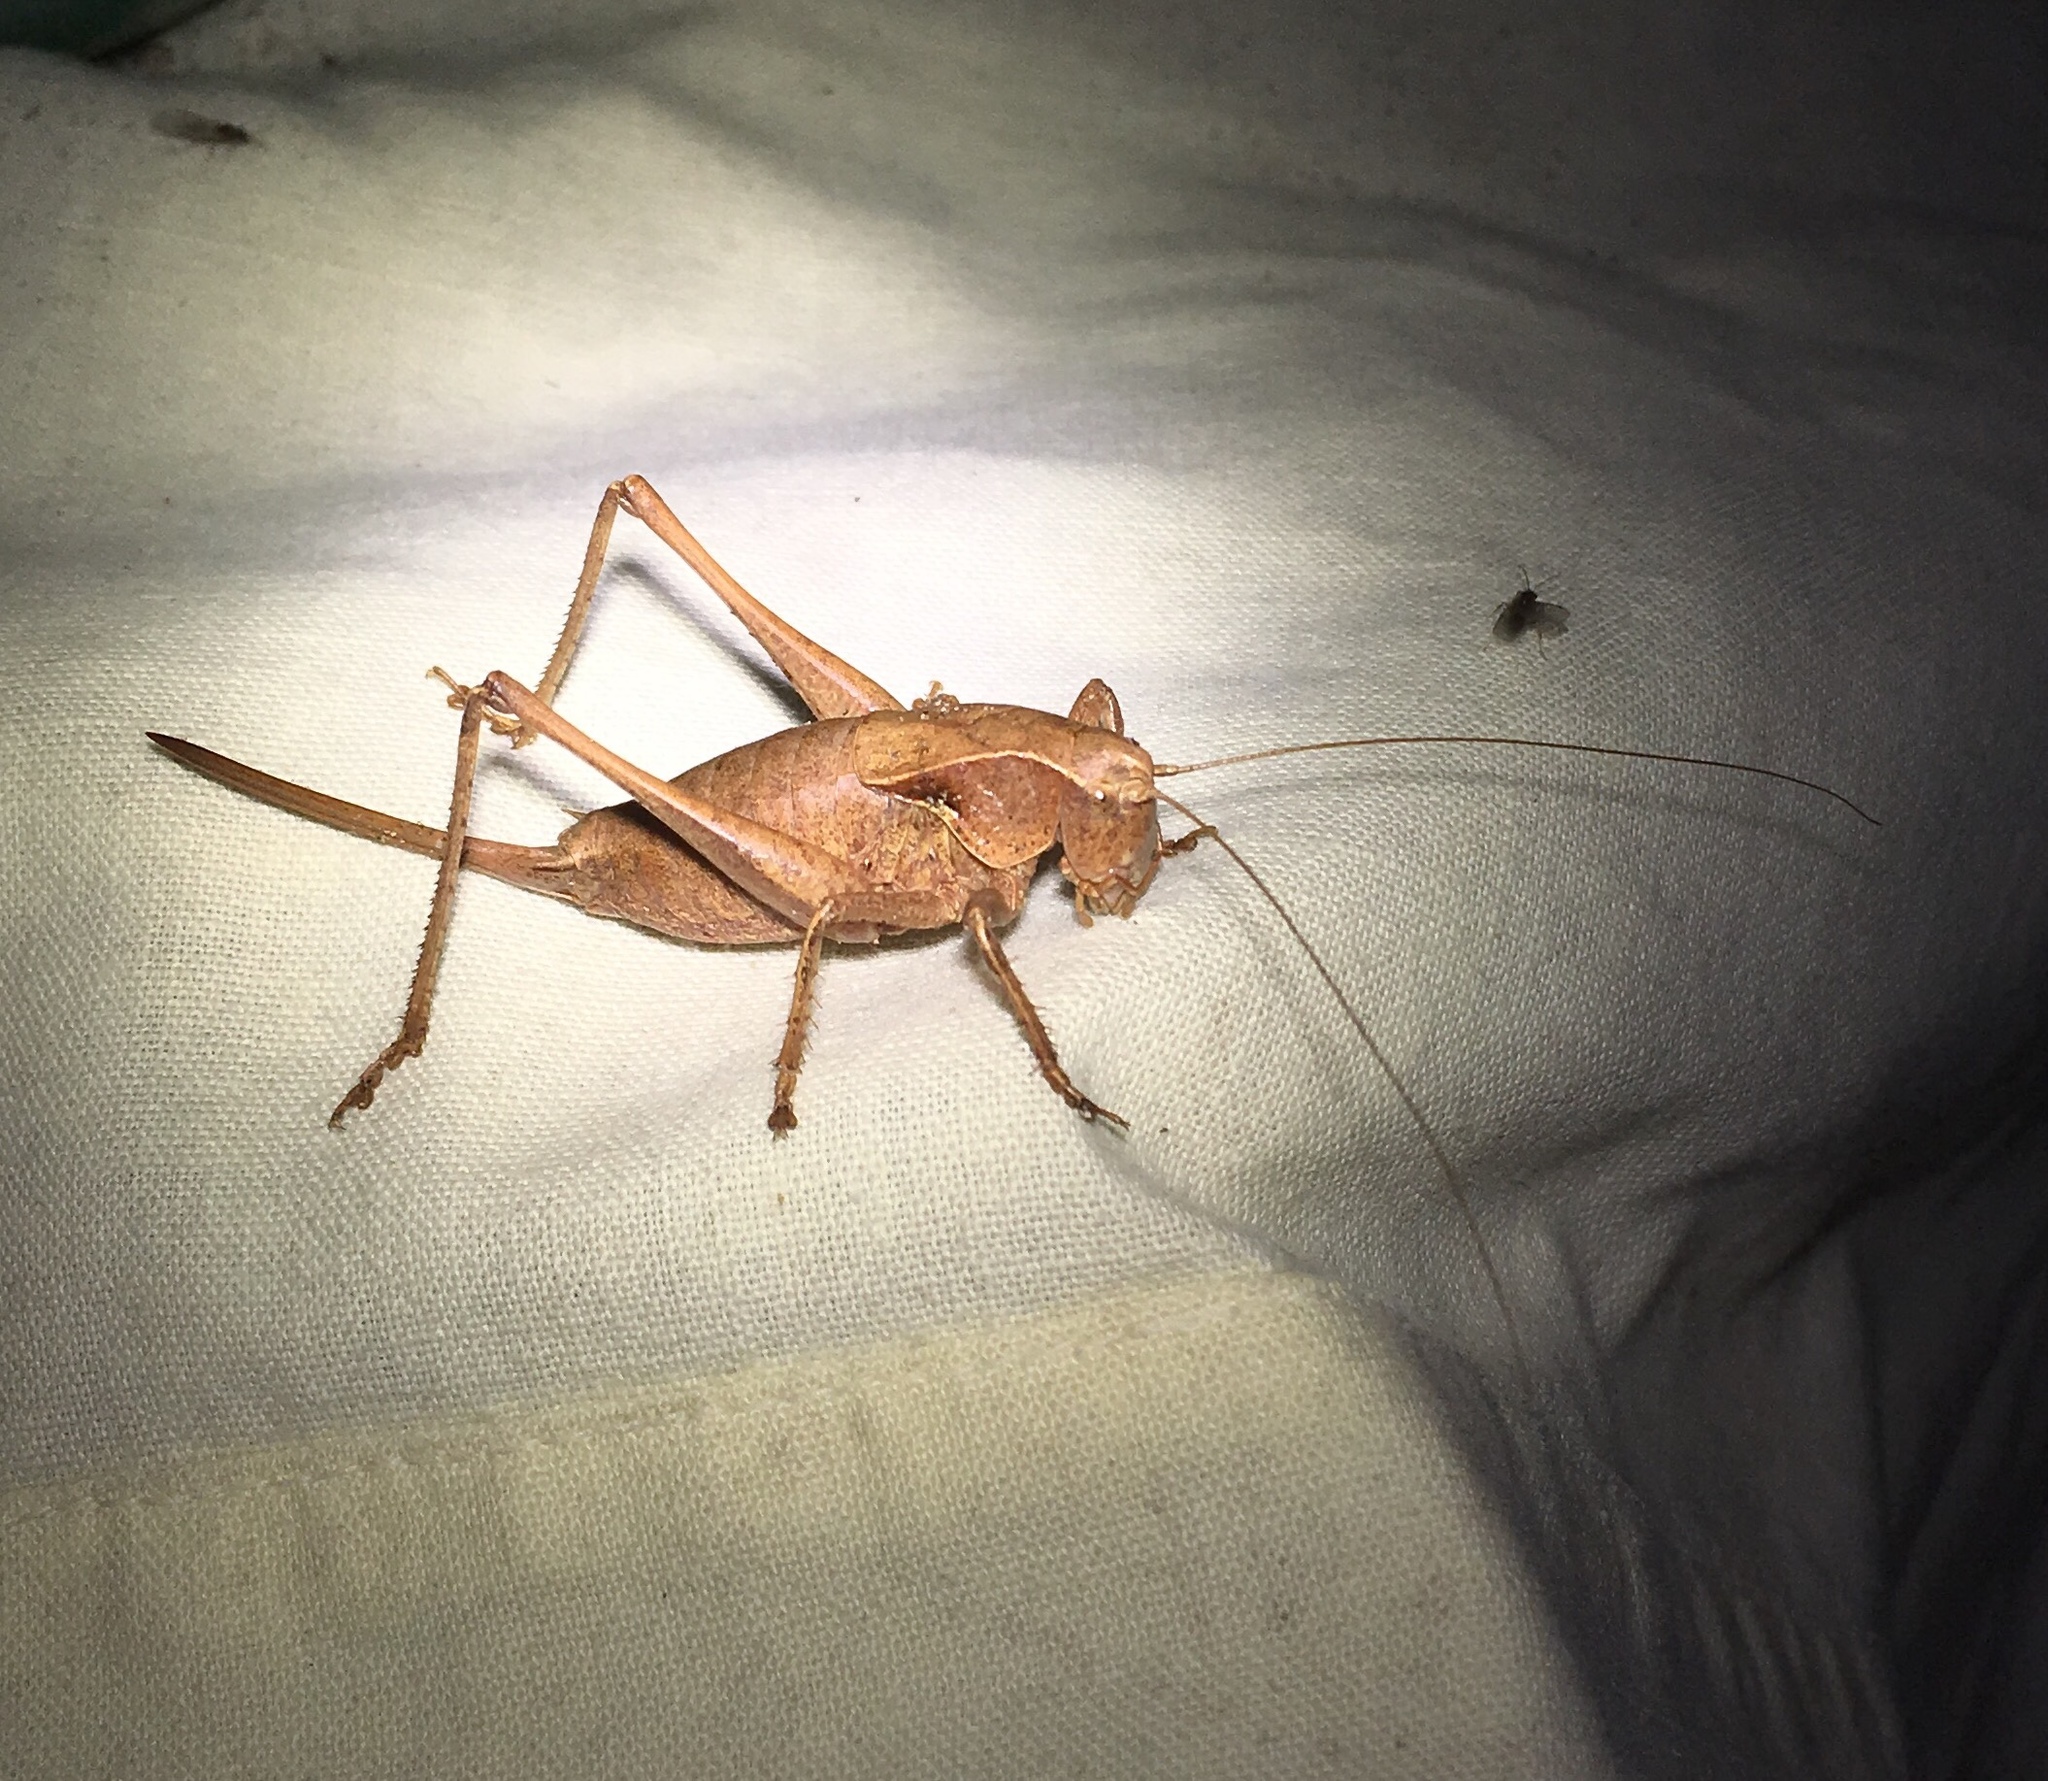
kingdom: Animalia
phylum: Arthropoda
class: Insecta
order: Orthoptera
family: Tettigoniidae
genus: Atlanticus
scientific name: Atlanticus davisi
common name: Davis's shield-bearer
